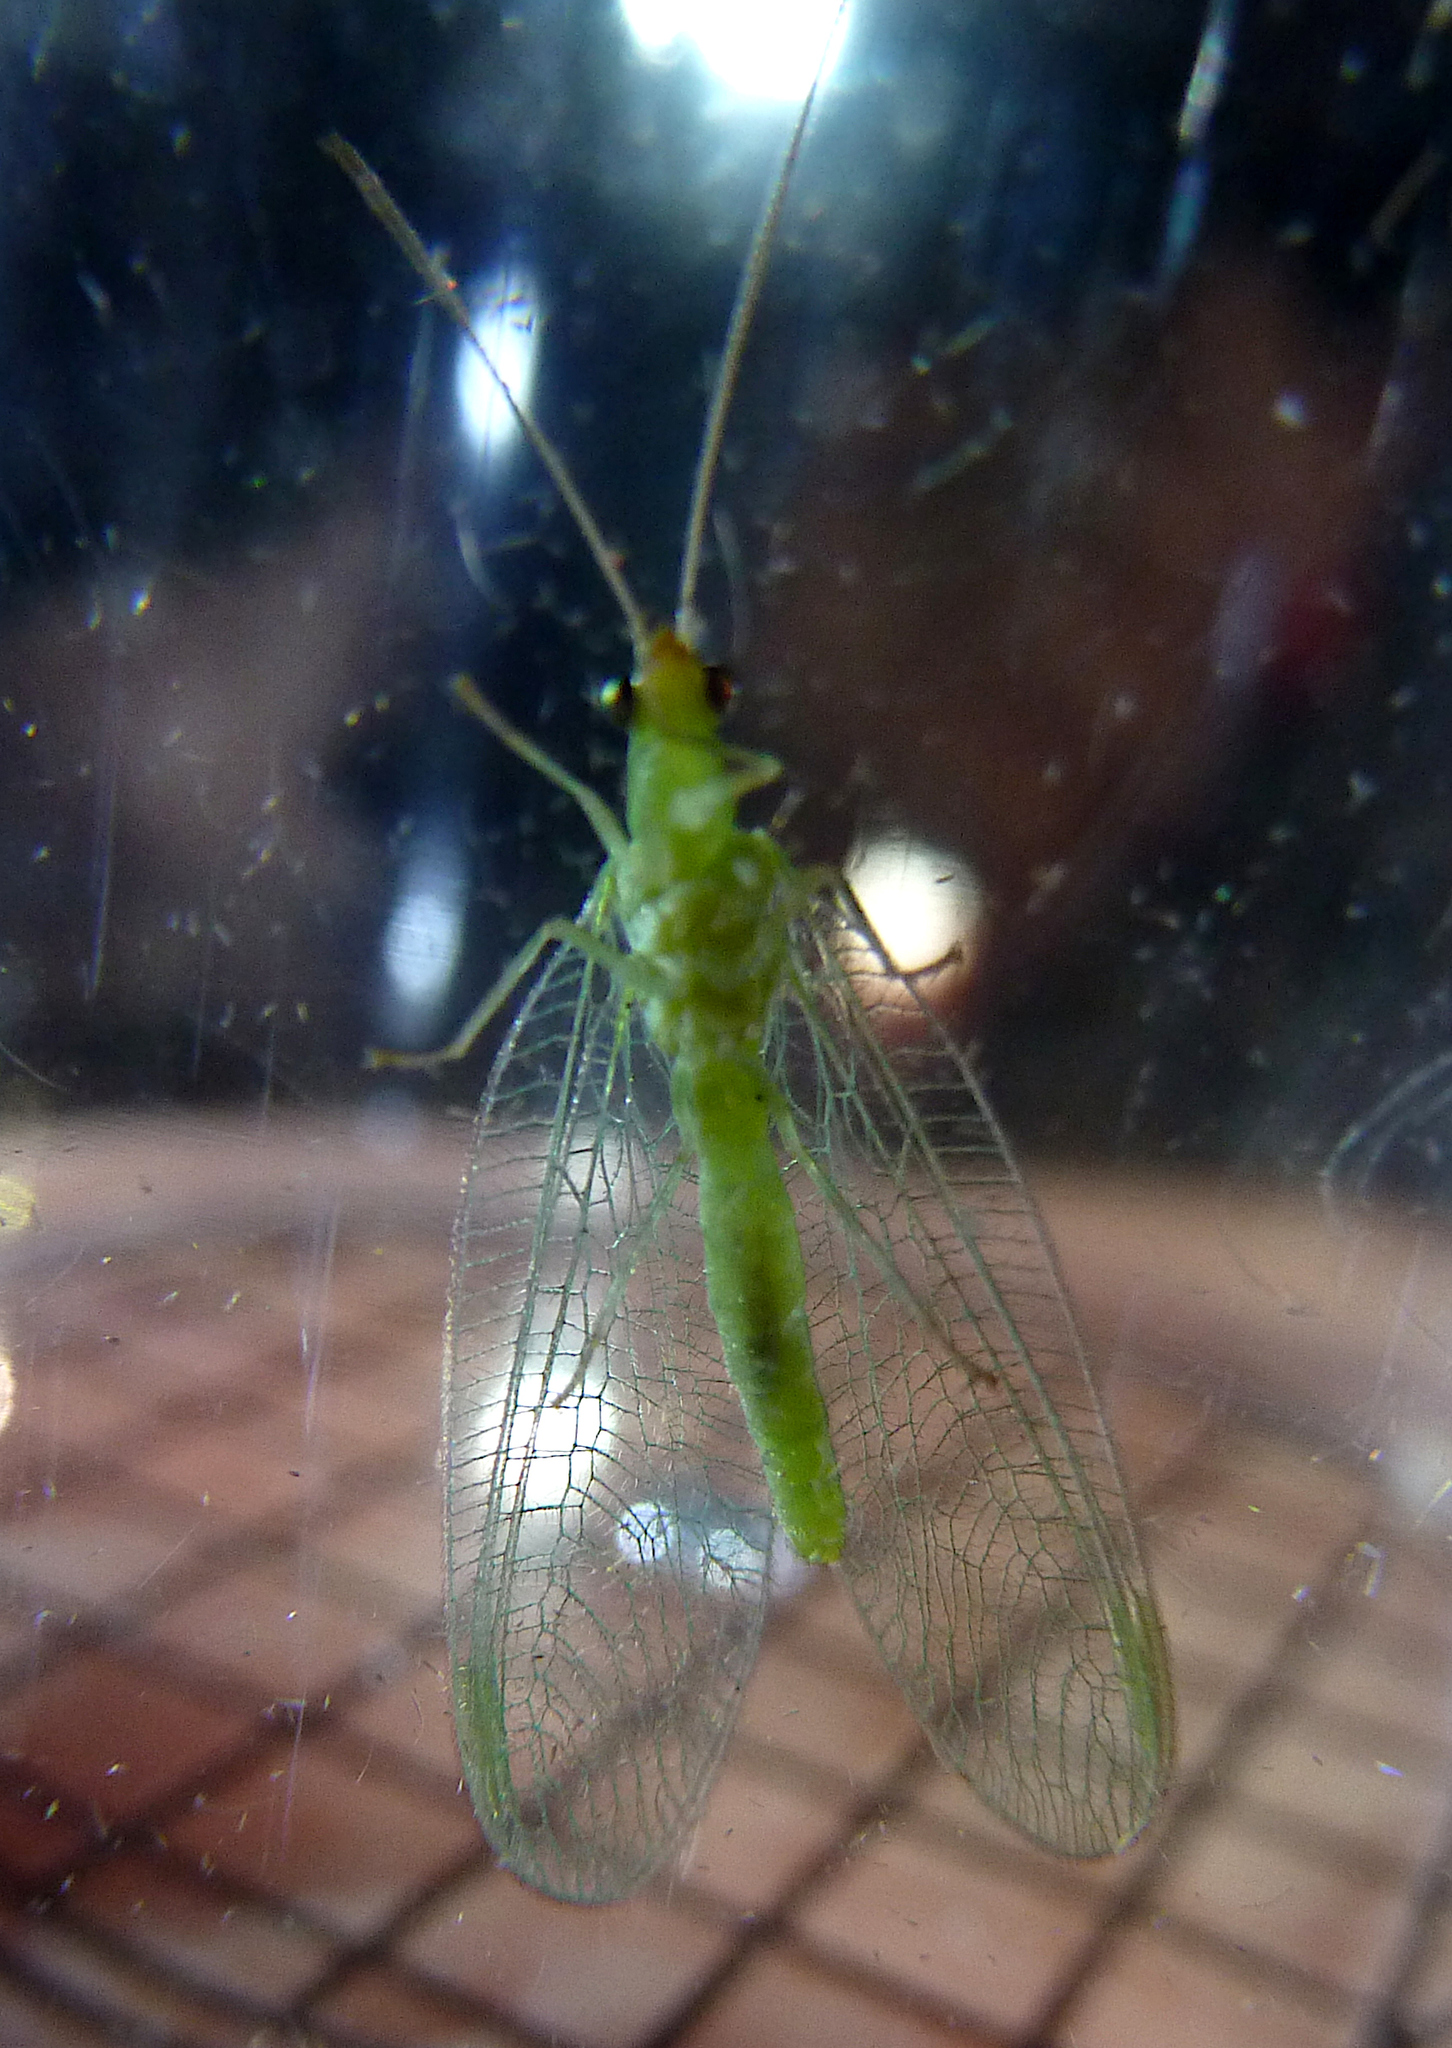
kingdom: Animalia
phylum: Arthropoda
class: Insecta
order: Neuroptera
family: Chrysopidae
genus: Chrysoperla
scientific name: Chrysoperla
